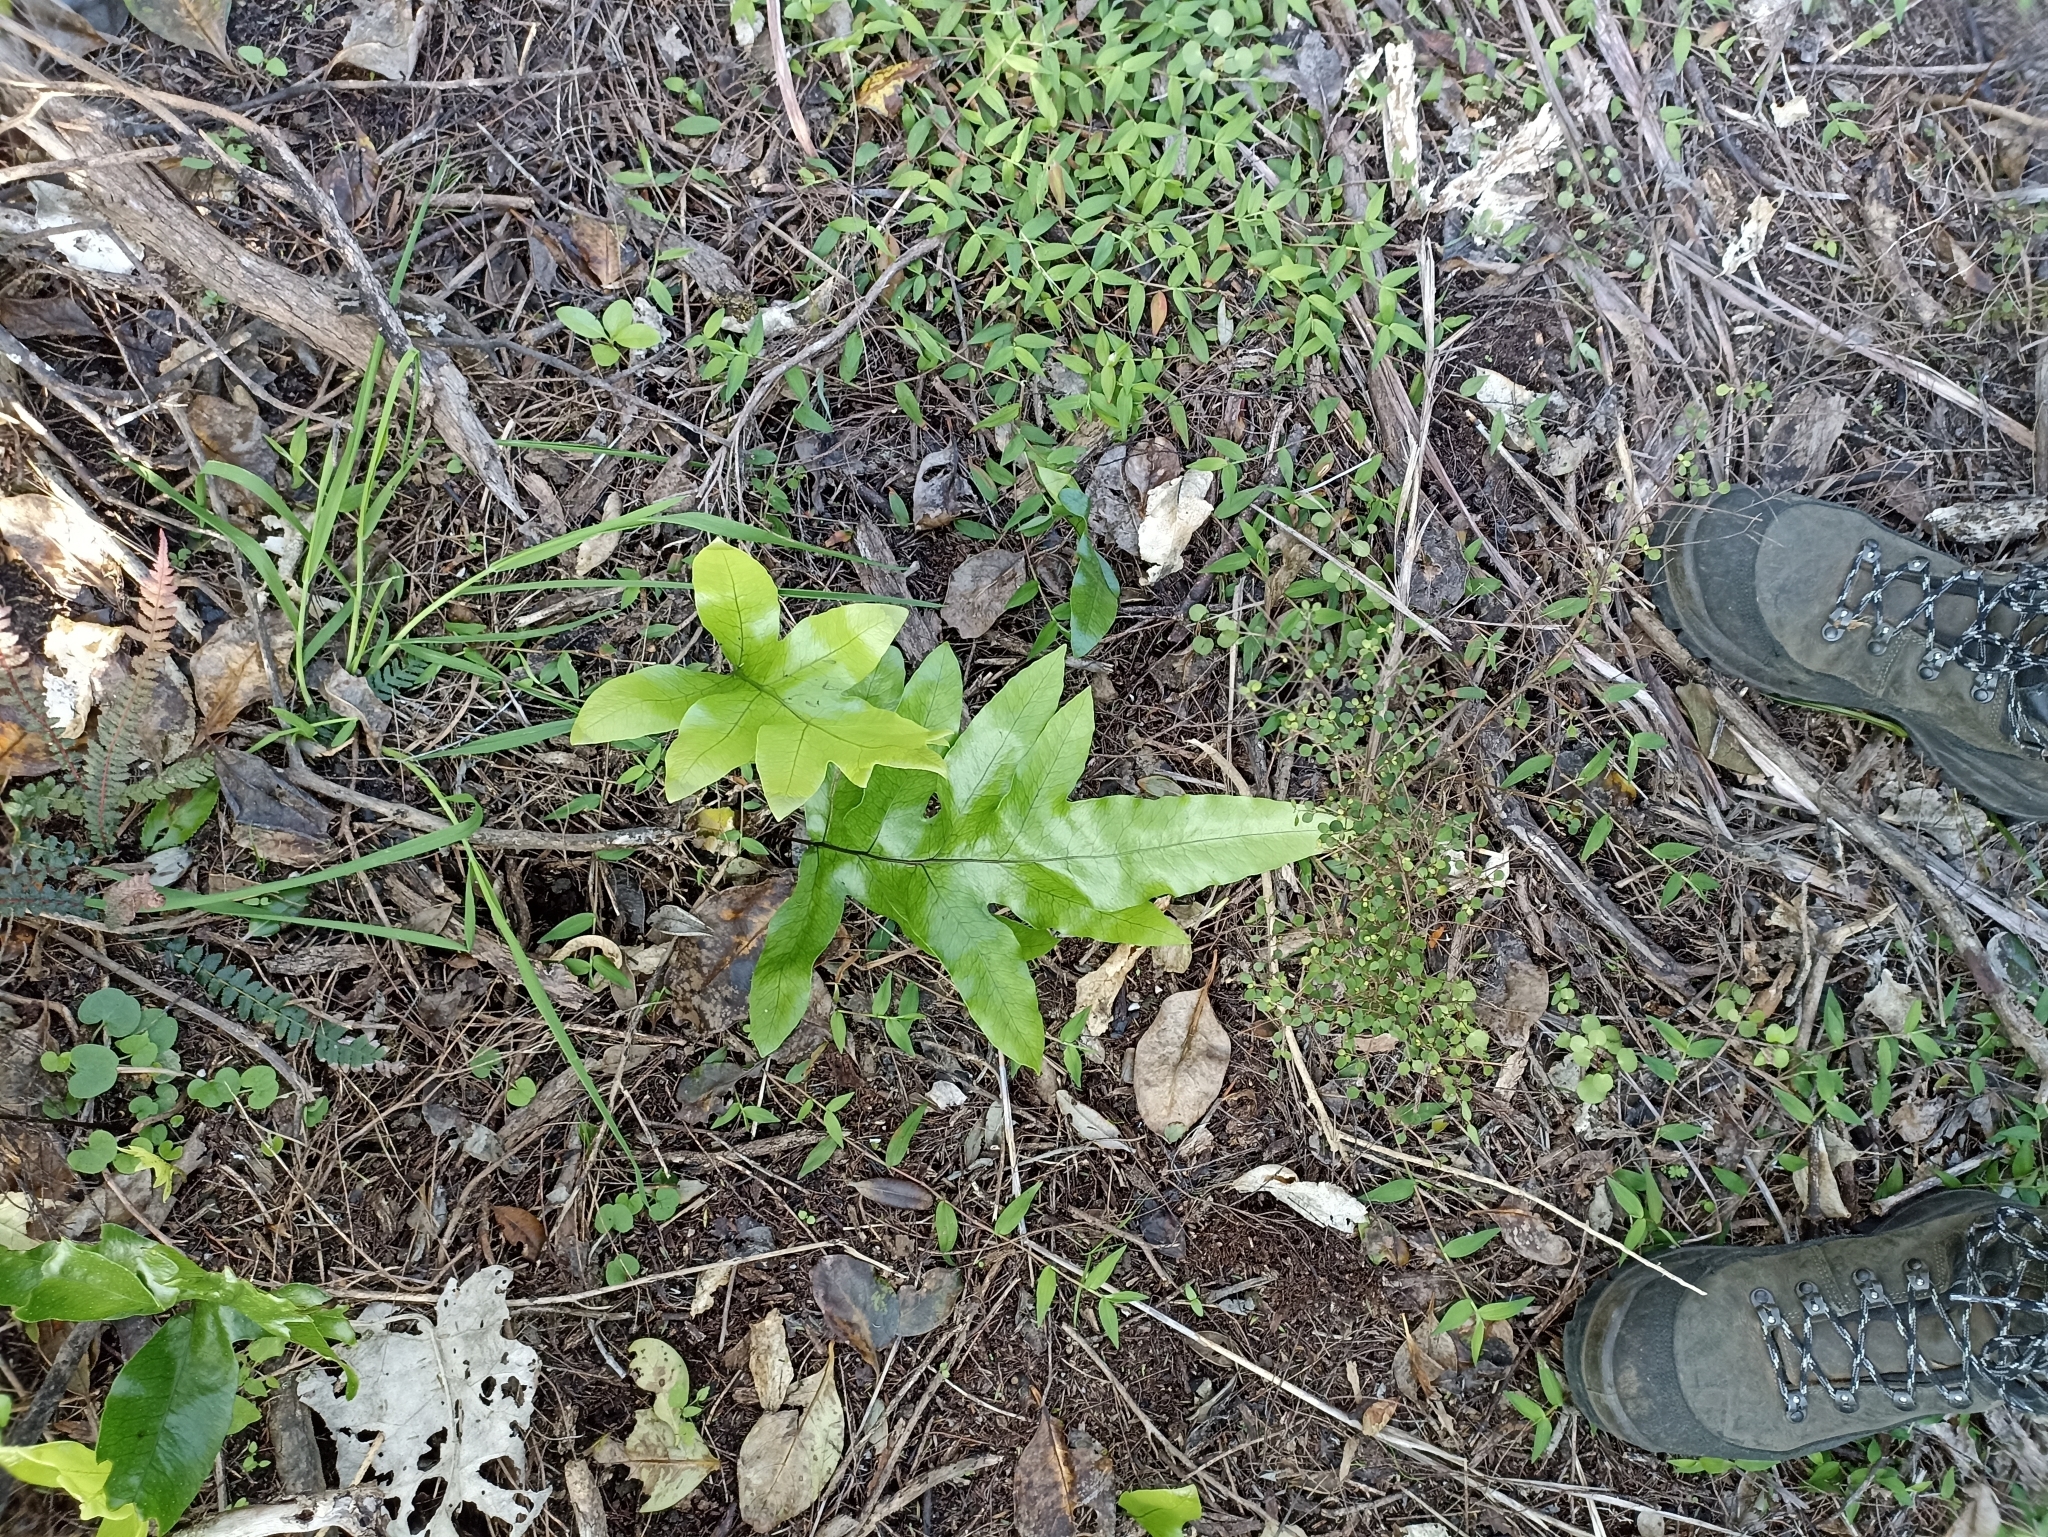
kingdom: Plantae
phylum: Tracheophyta
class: Polypodiopsida
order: Polypodiales
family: Polypodiaceae
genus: Lecanopteris
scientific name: Lecanopteris pustulata
